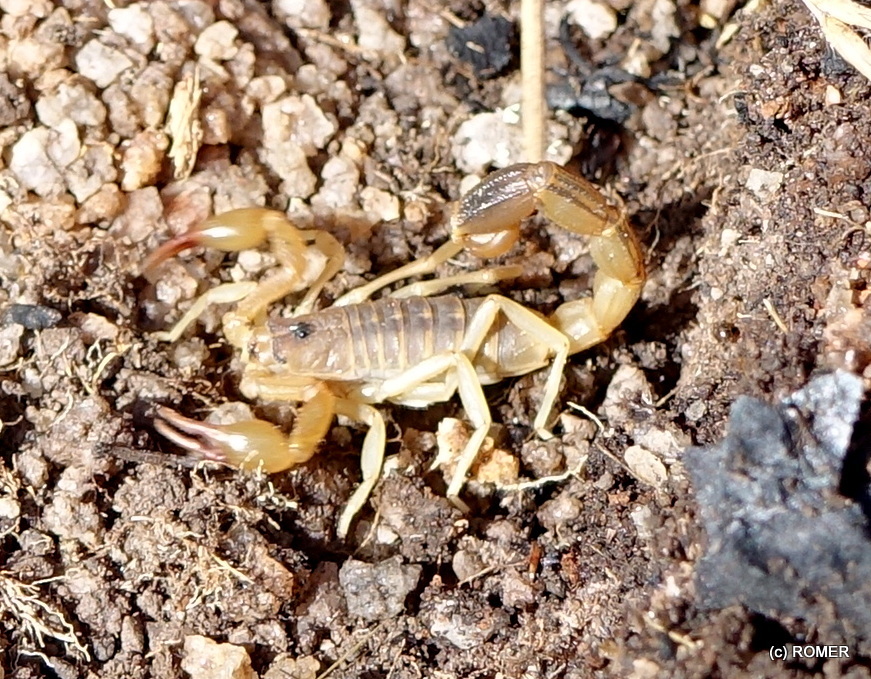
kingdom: Animalia
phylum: Arthropoda
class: Arachnida
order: Scorpiones
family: Buthidae
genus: Teruelius
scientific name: Teruelius limbatus
